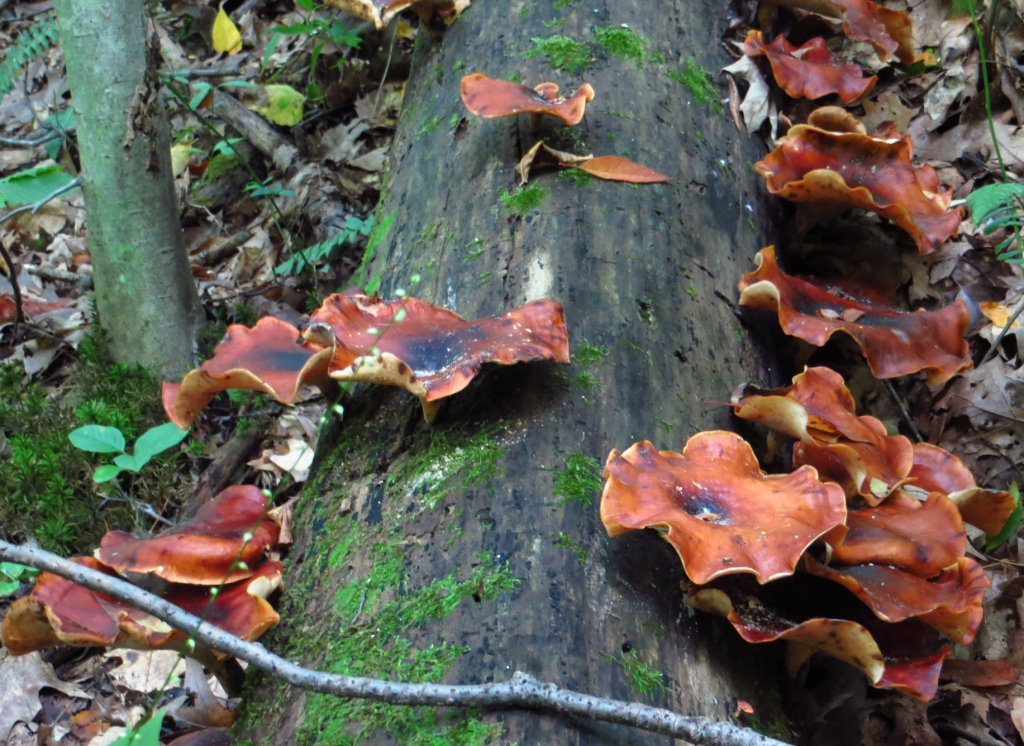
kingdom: Fungi
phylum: Basidiomycota
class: Agaricomycetes
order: Polyporales
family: Polyporaceae
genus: Picipes
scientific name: Picipes badius
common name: Bay polypore
